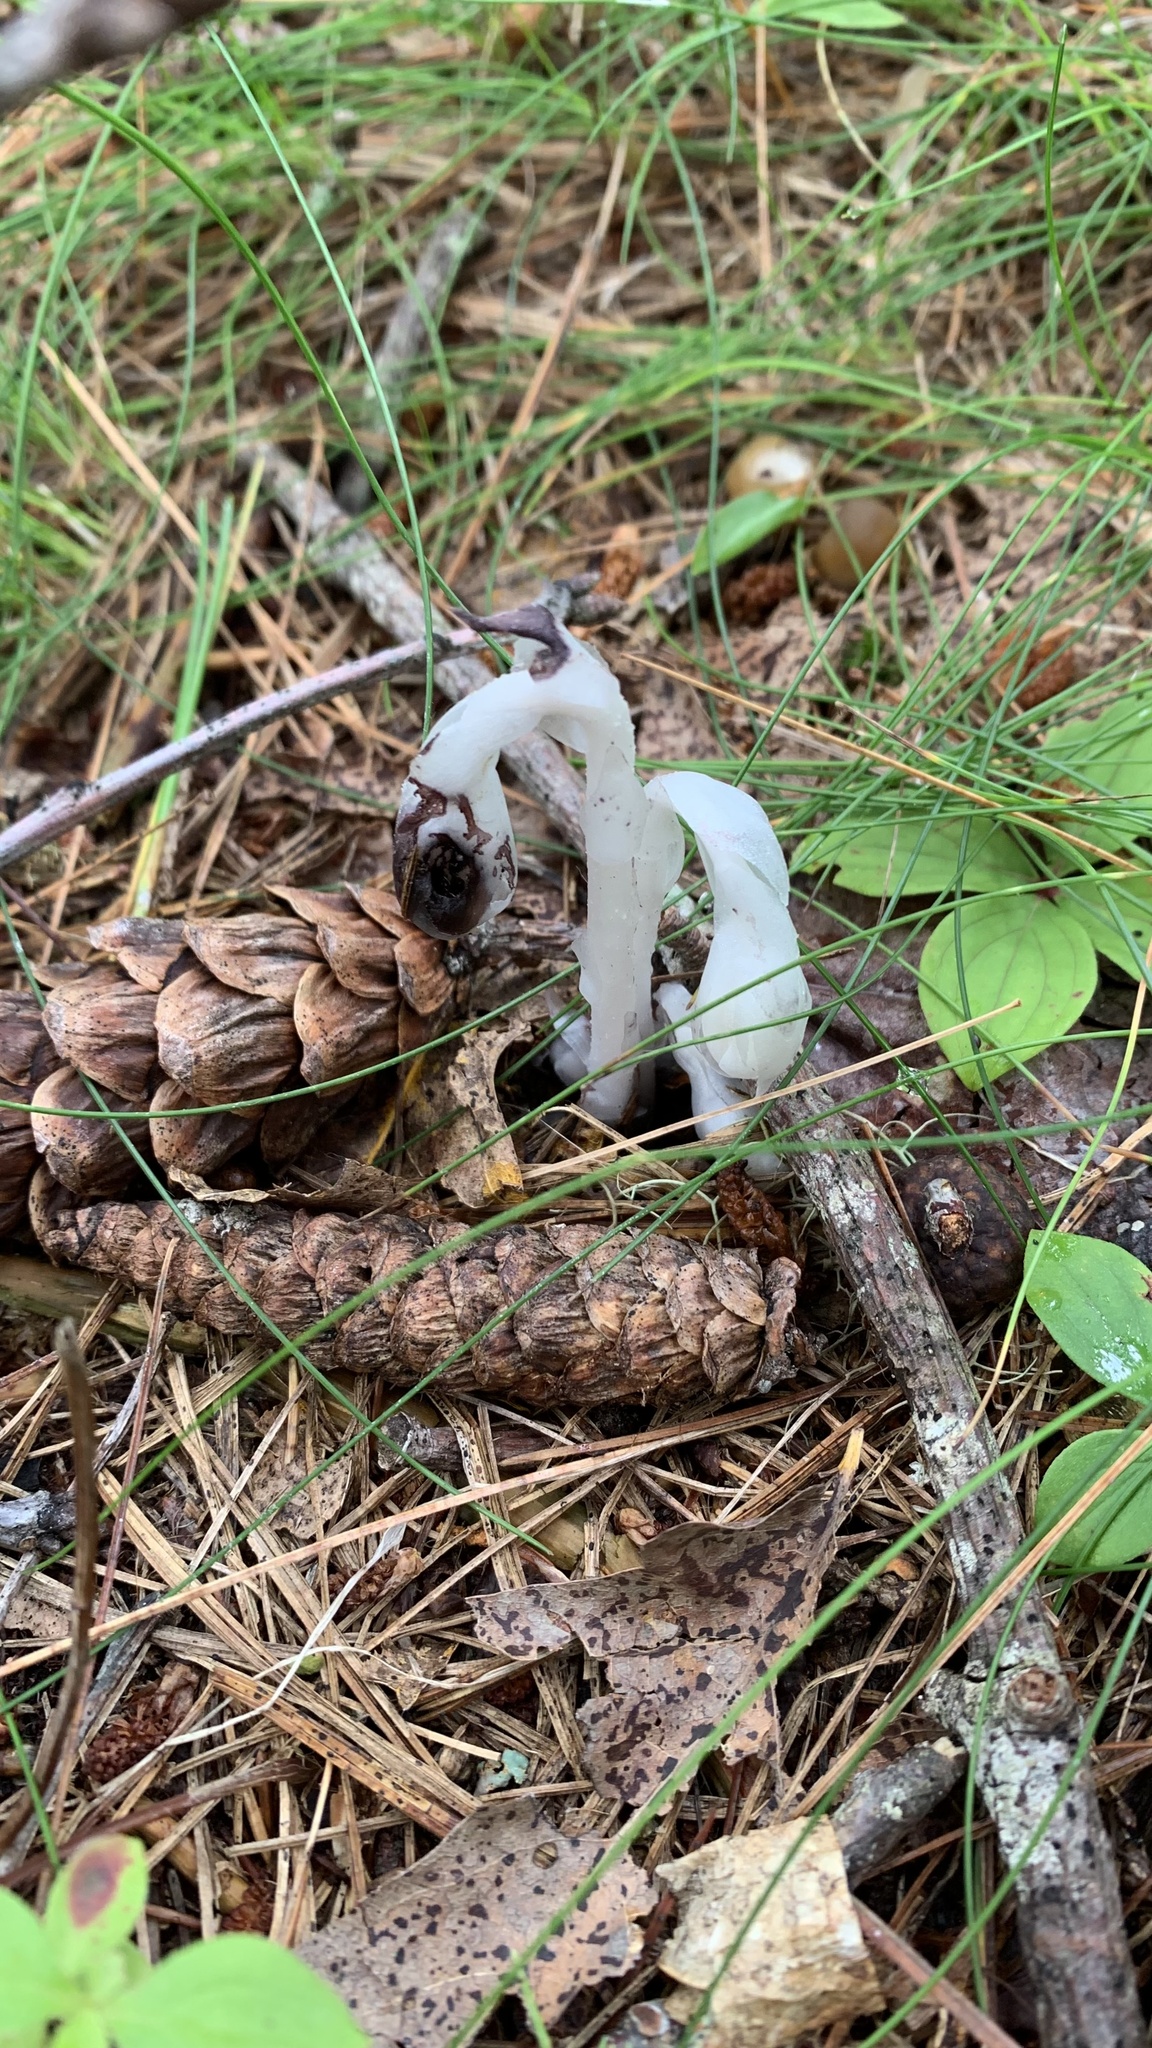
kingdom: Plantae
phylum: Tracheophyta
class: Magnoliopsida
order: Ericales
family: Ericaceae
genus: Monotropa
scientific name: Monotropa uniflora
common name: Convulsion root
